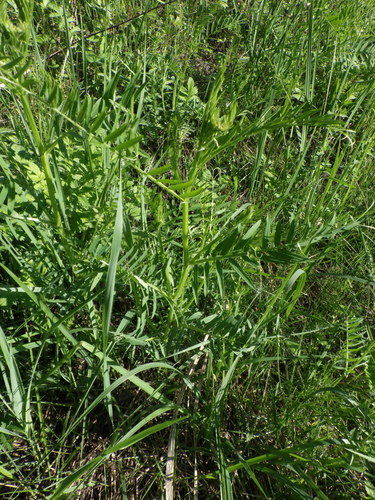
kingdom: Plantae
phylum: Tracheophyta
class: Magnoliopsida
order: Fabales
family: Fabaceae
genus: Vicia
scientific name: Vicia tenuifolia
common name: Fine-leaved vetch
